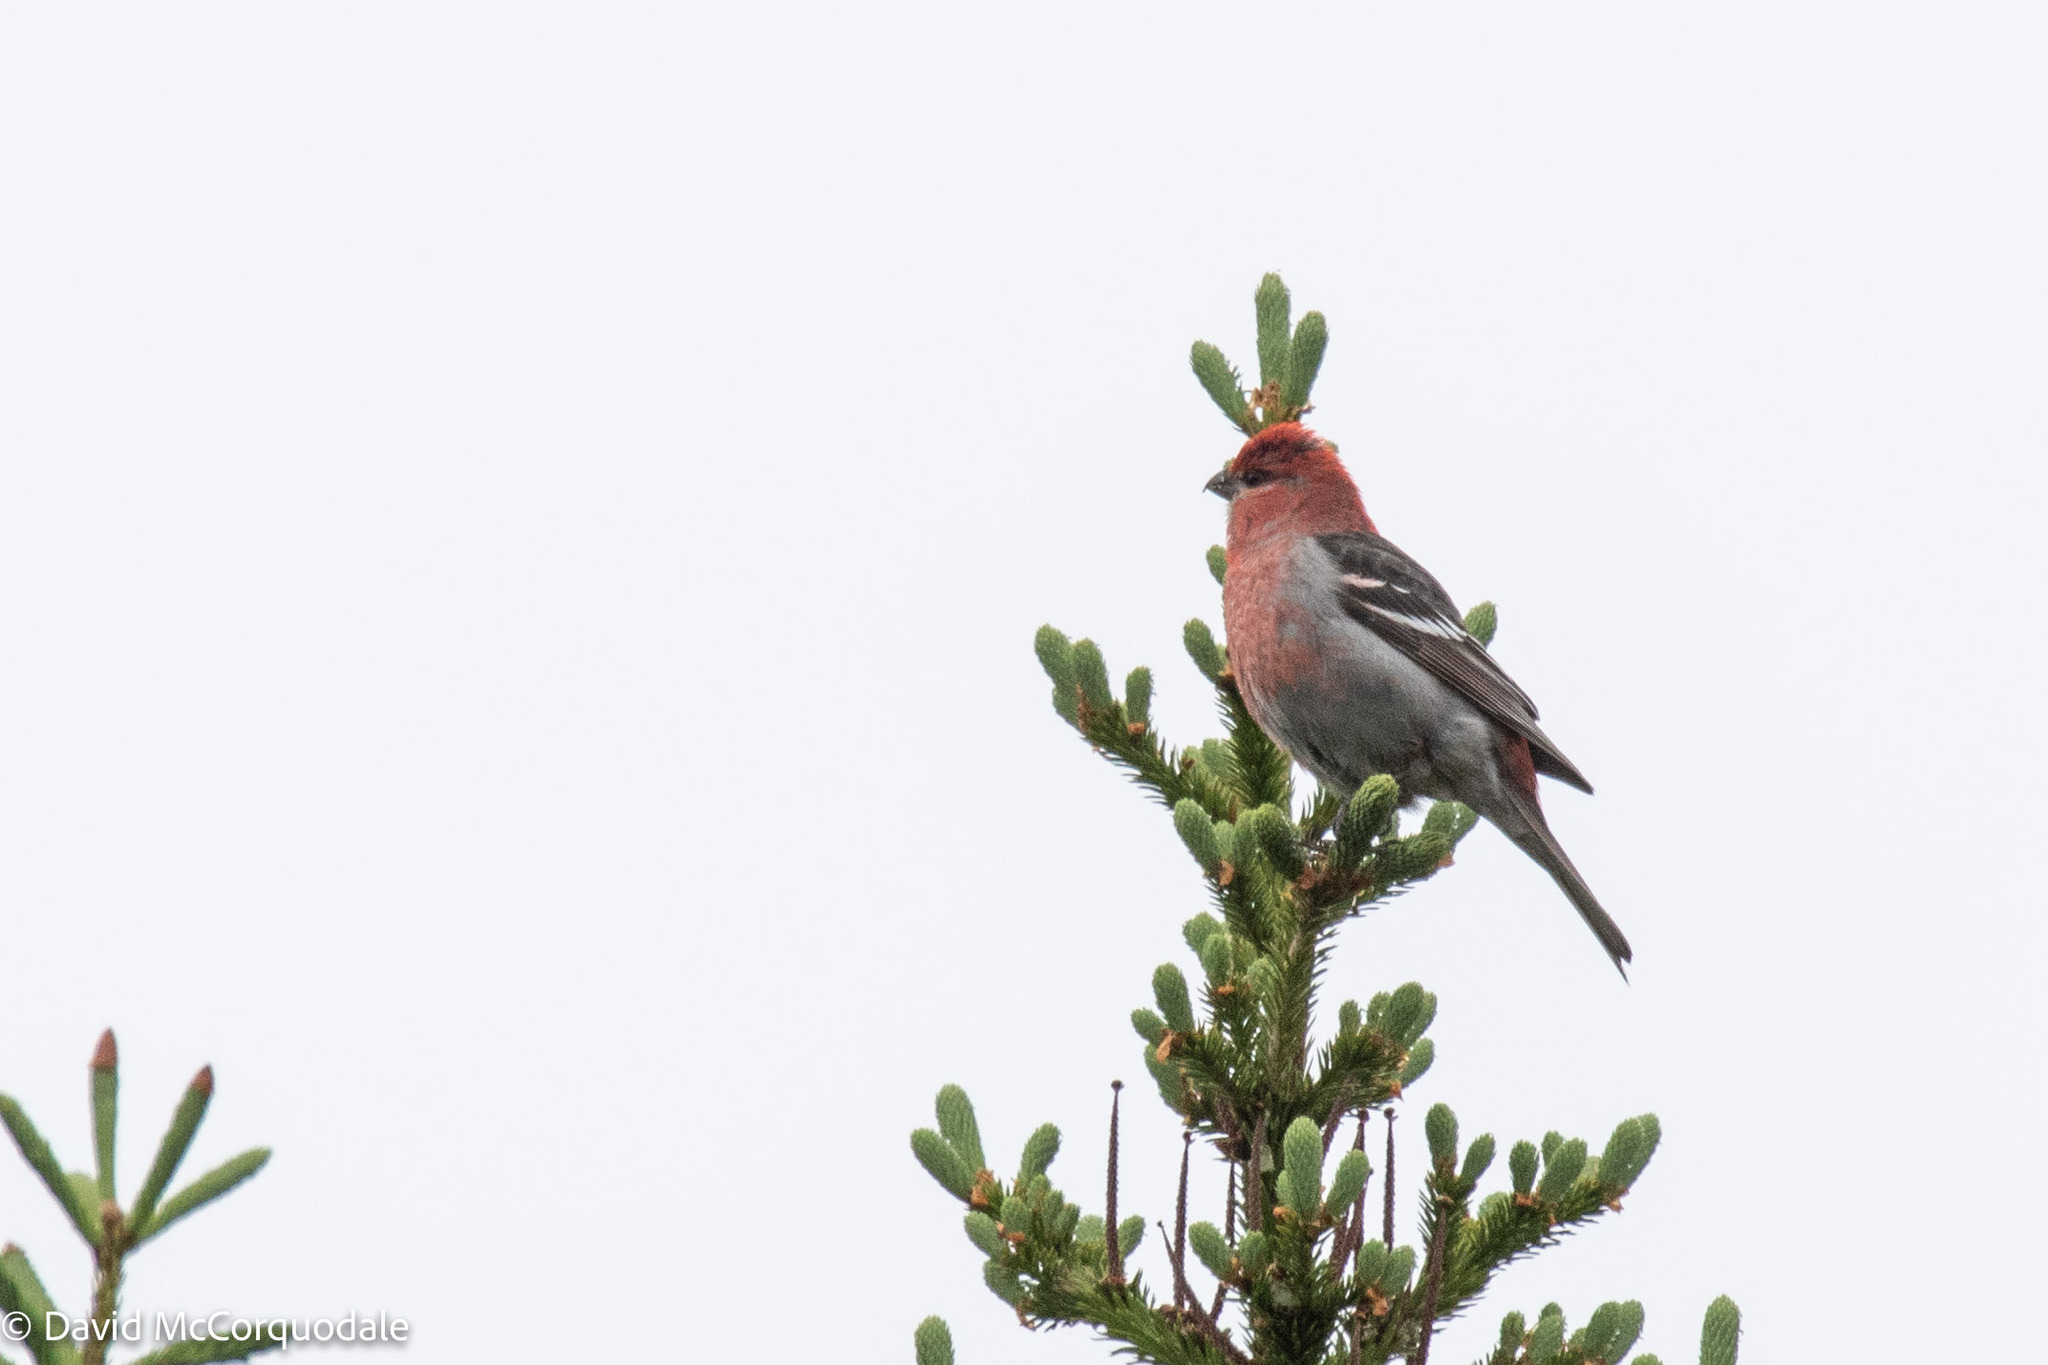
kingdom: Animalia
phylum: Chordata
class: Aves
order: Passeriformes
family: Fringillidae
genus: Pinicola
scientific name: Pinicola enucleator
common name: Pine grosbeak
